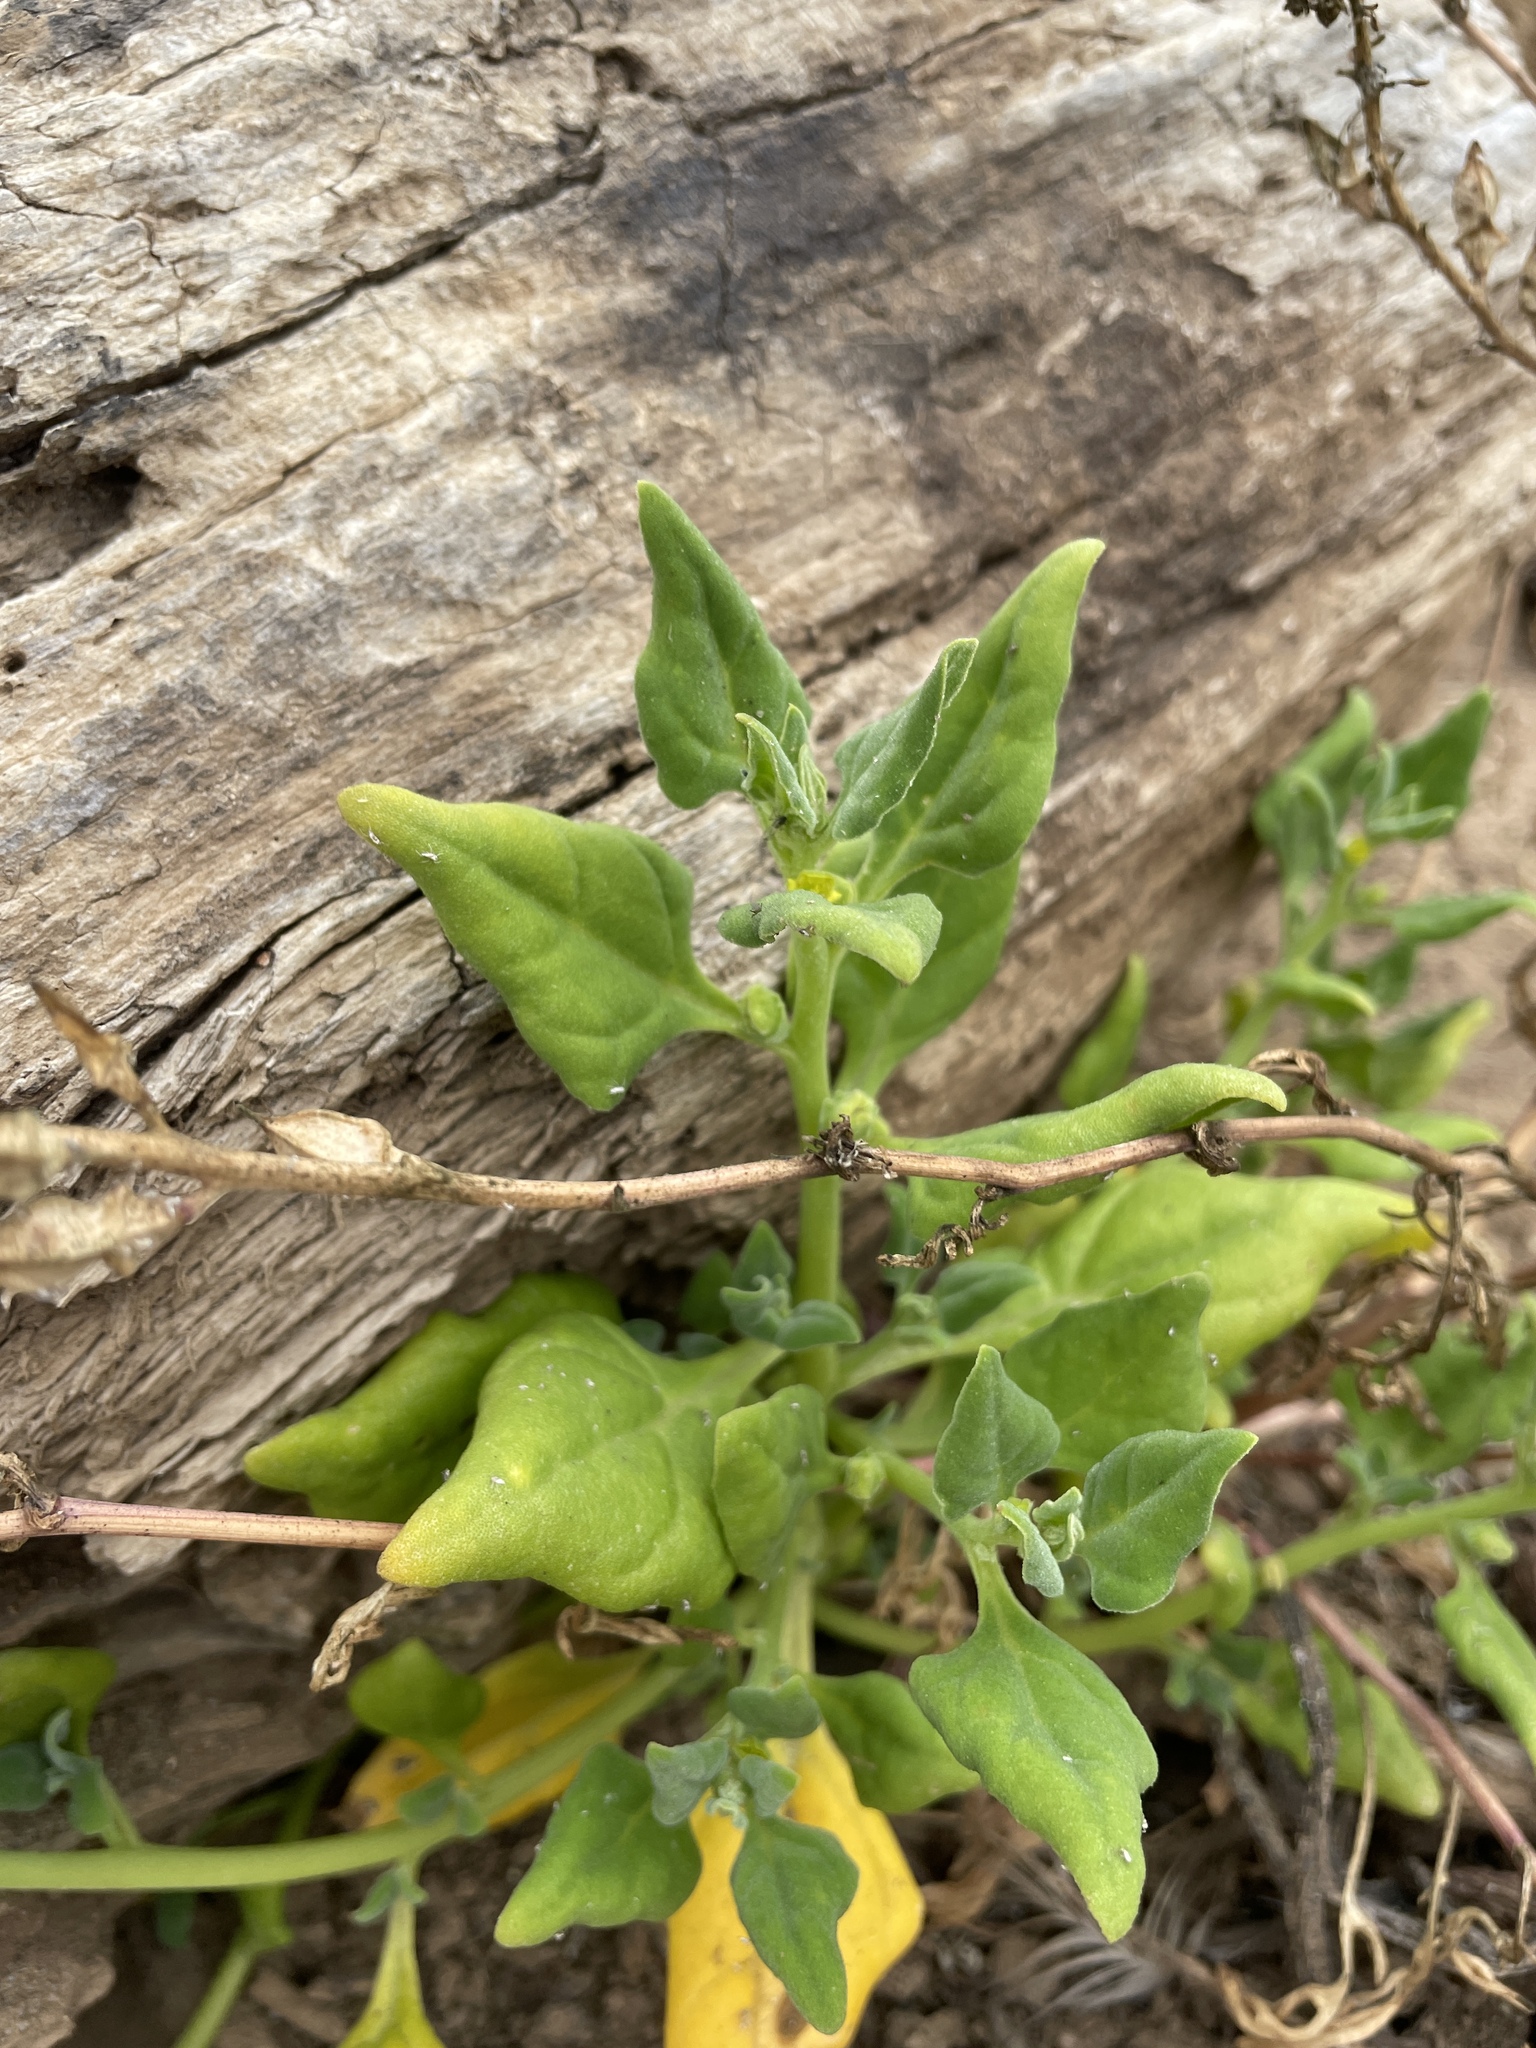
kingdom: Plantae
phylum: Tracheophyta
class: Magnoliopsida
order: Caryophyllales
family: Aizoaceae
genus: Tetragonia
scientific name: Tetragonia tetragonoides
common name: New zealand-spinach
